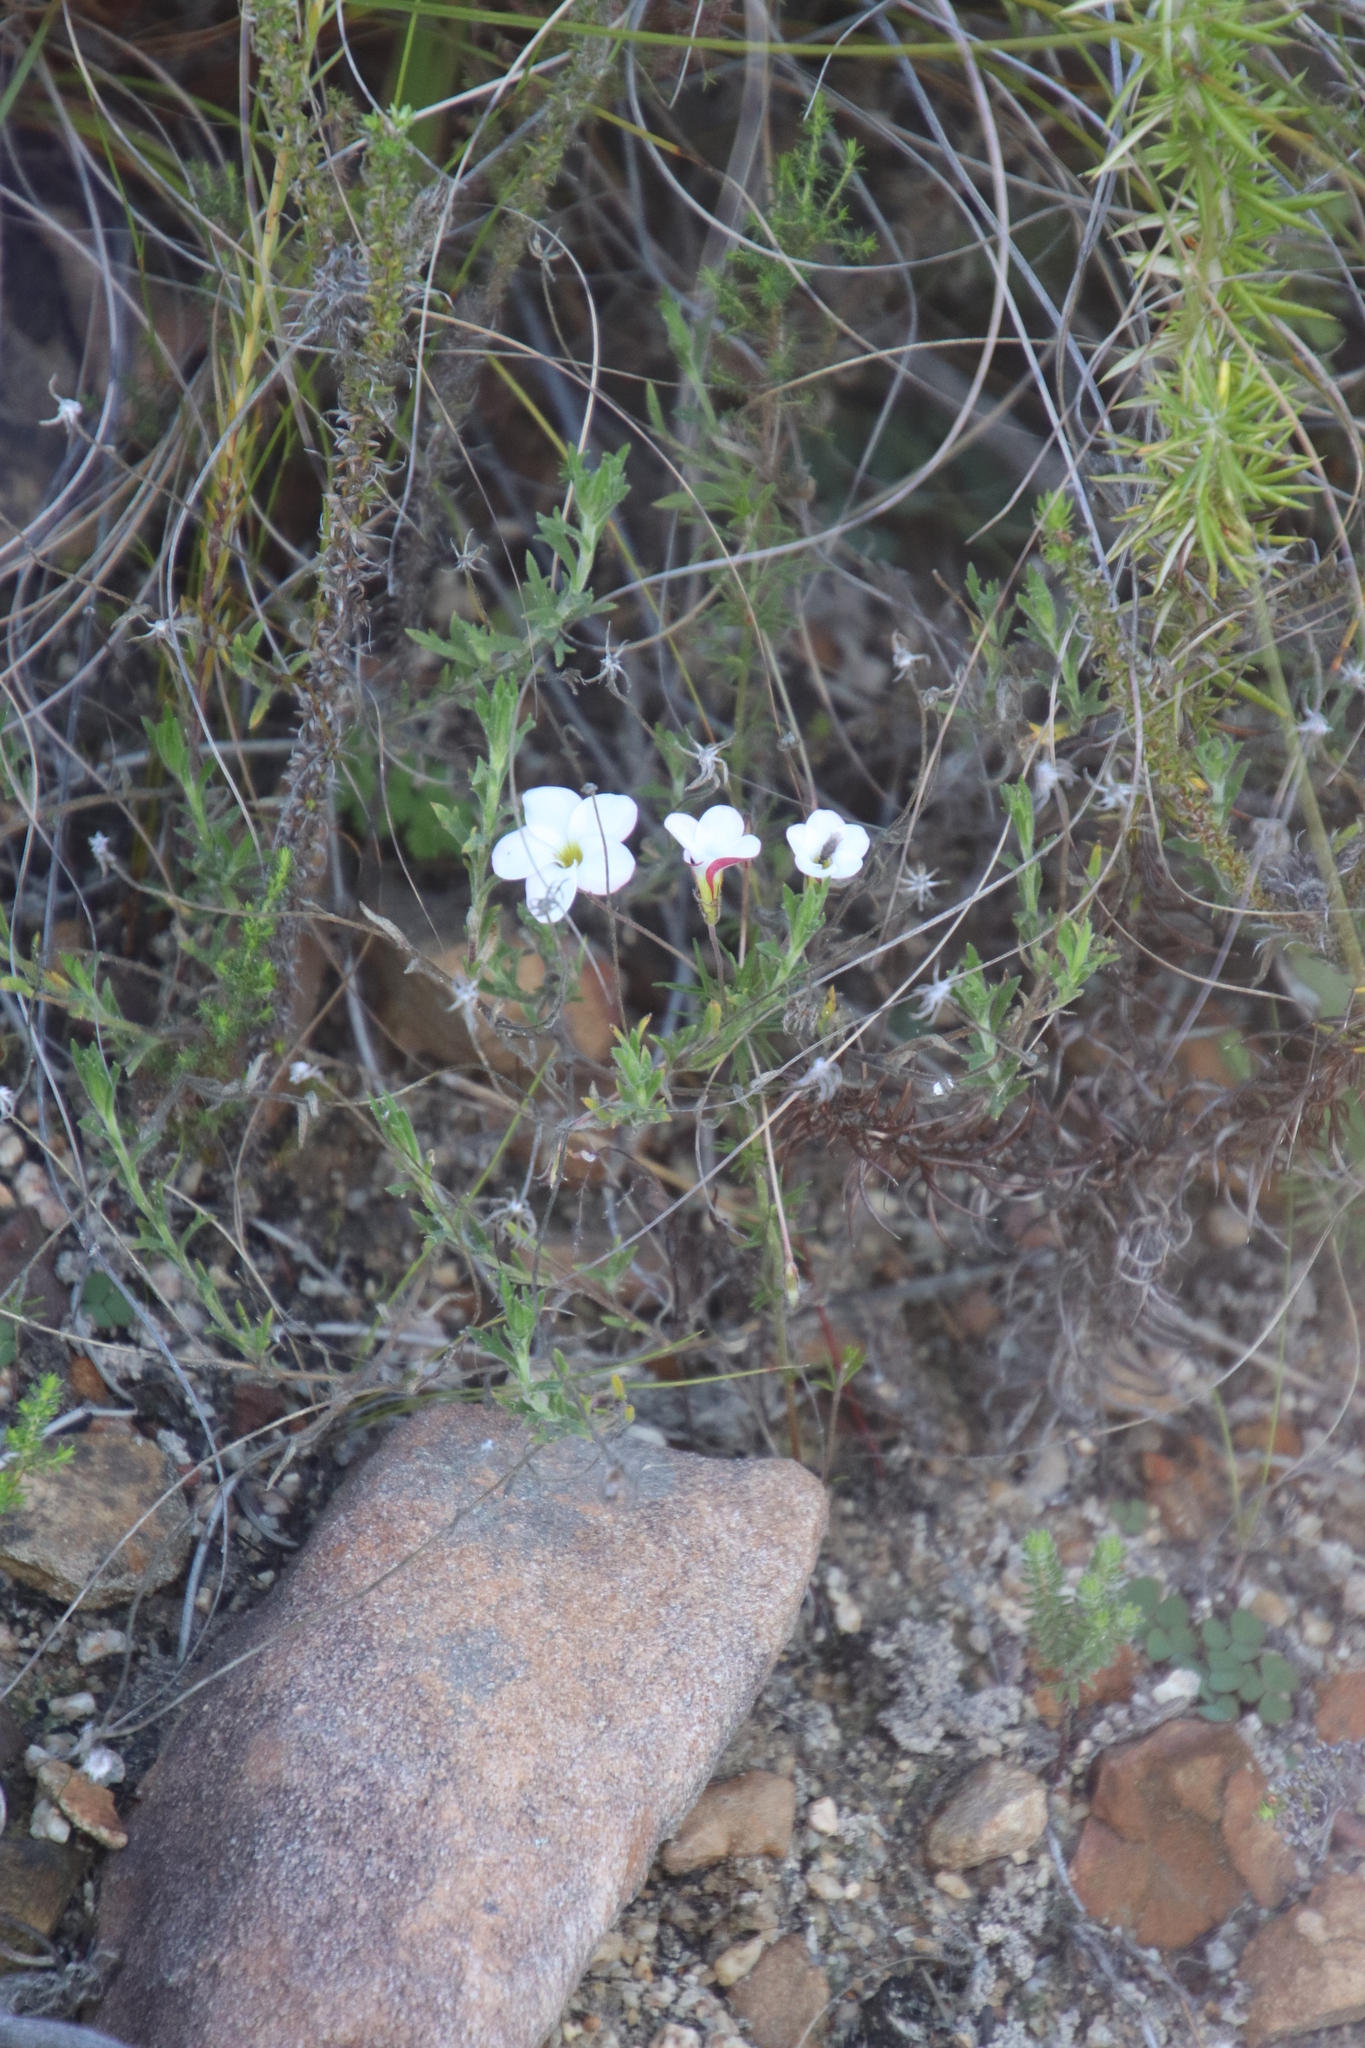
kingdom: Plantae
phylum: Tracheophyta
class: Magnoliopsida
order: Oxalidales
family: Oxalidaceae
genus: Oxalis
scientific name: Oxalis tenuifolia
